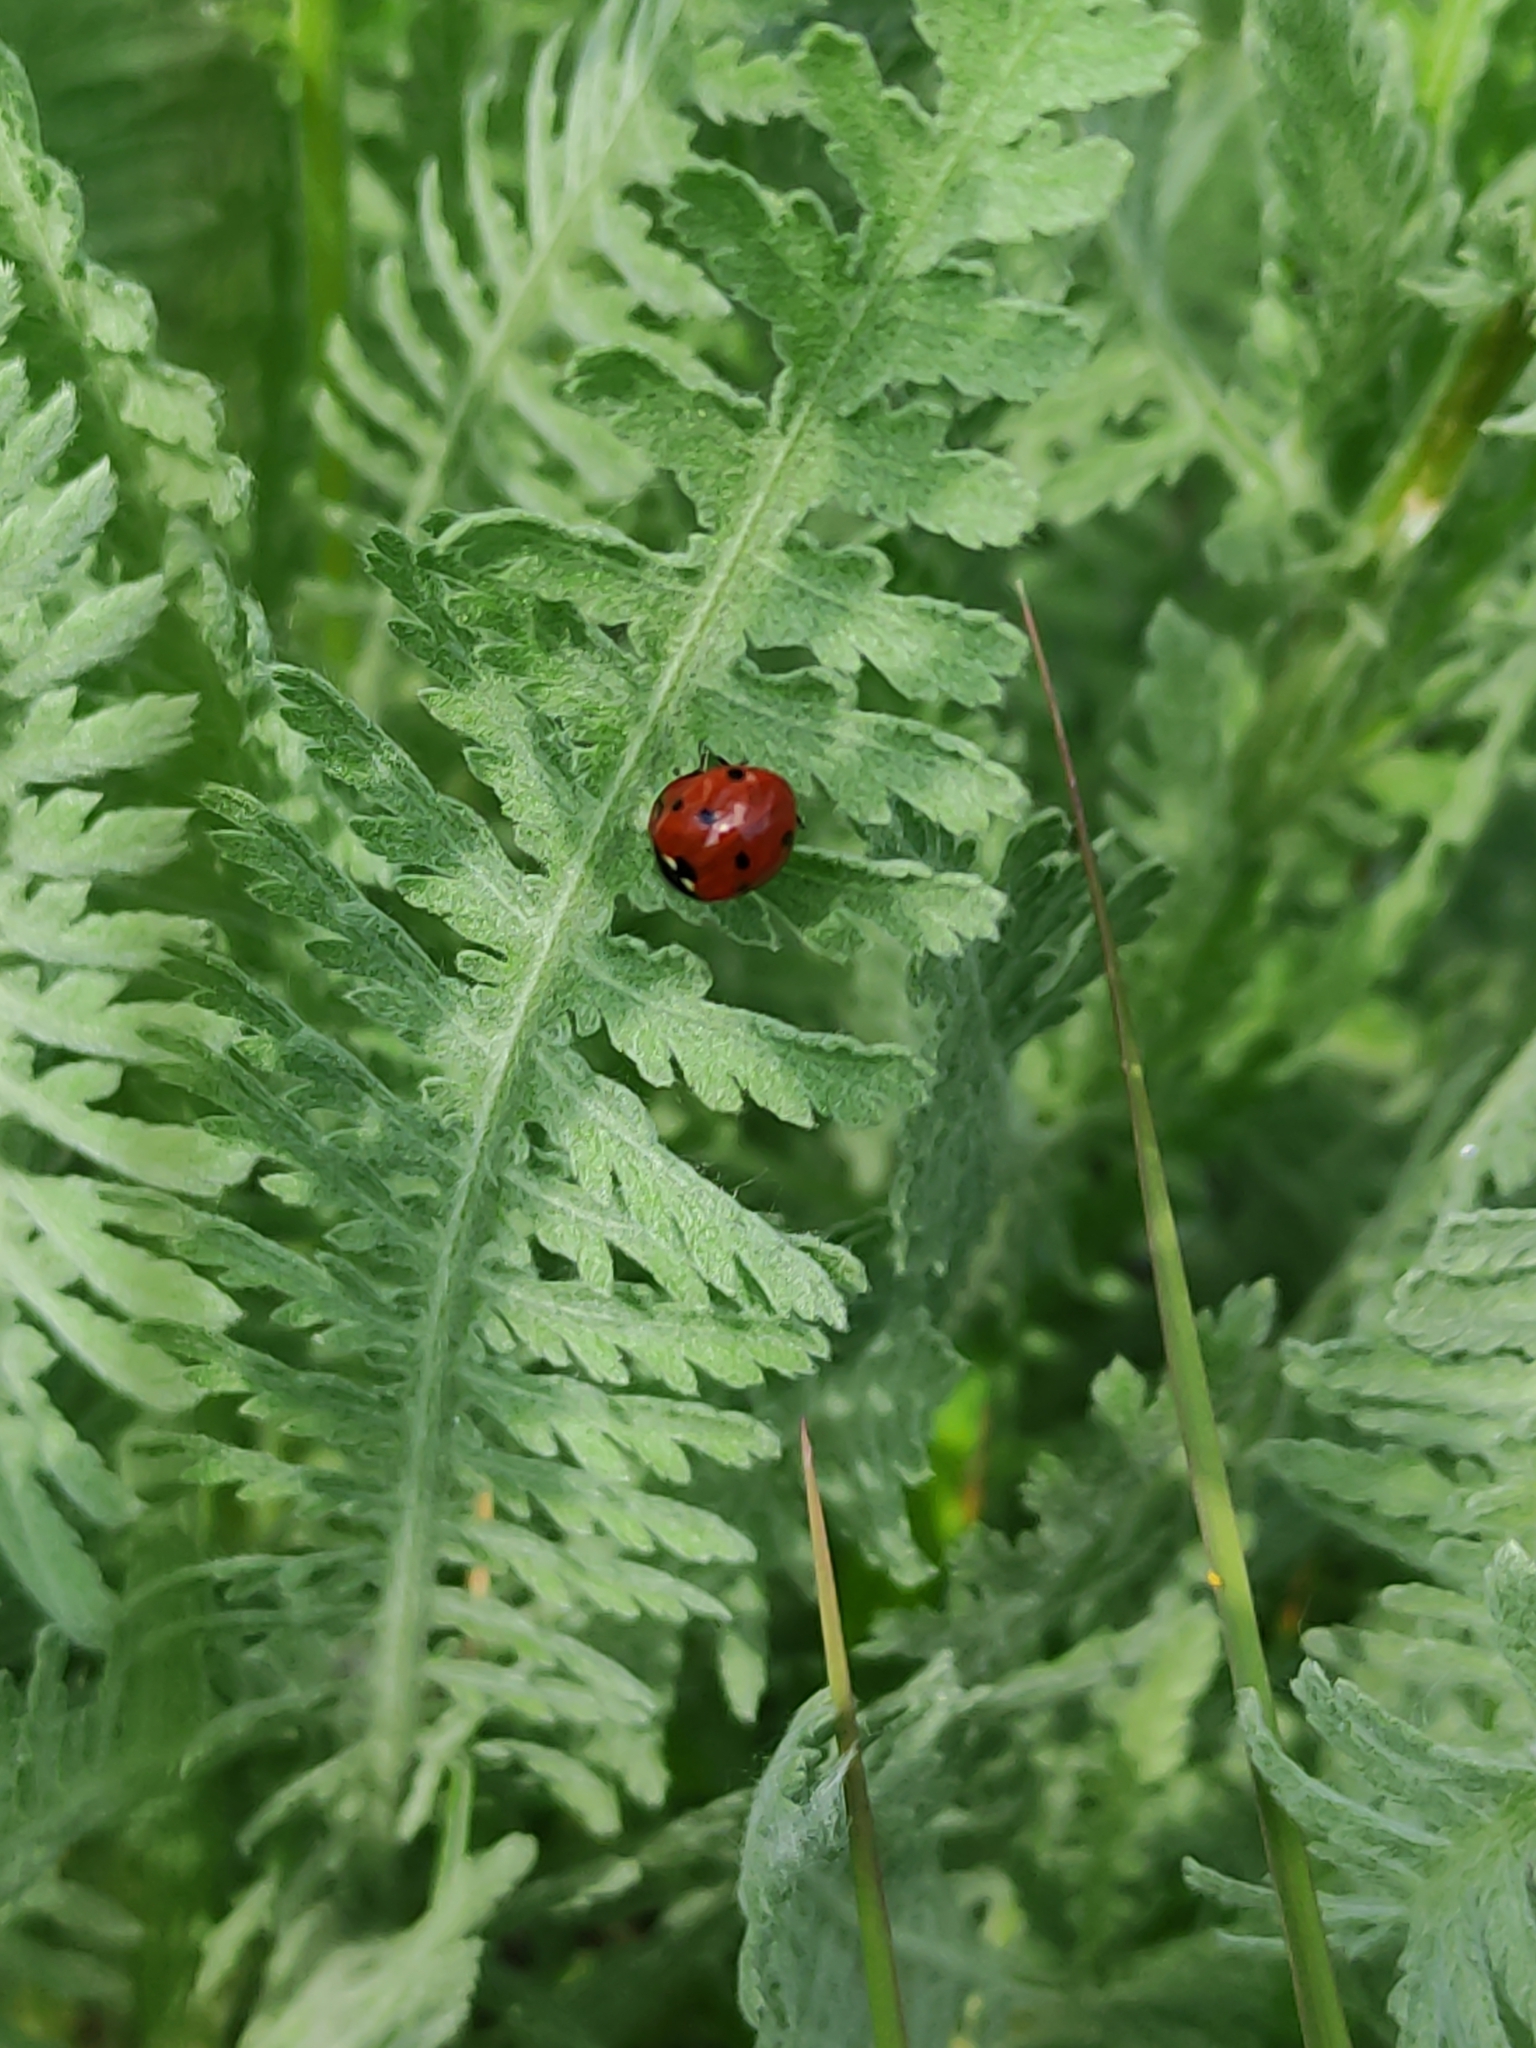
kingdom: Animalia
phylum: Arthropoda
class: Insecta
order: Coleoptera
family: Coccinellidae
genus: Coccinella
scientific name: Coccinella septempunctata
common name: Sevenspotted lady beetle
